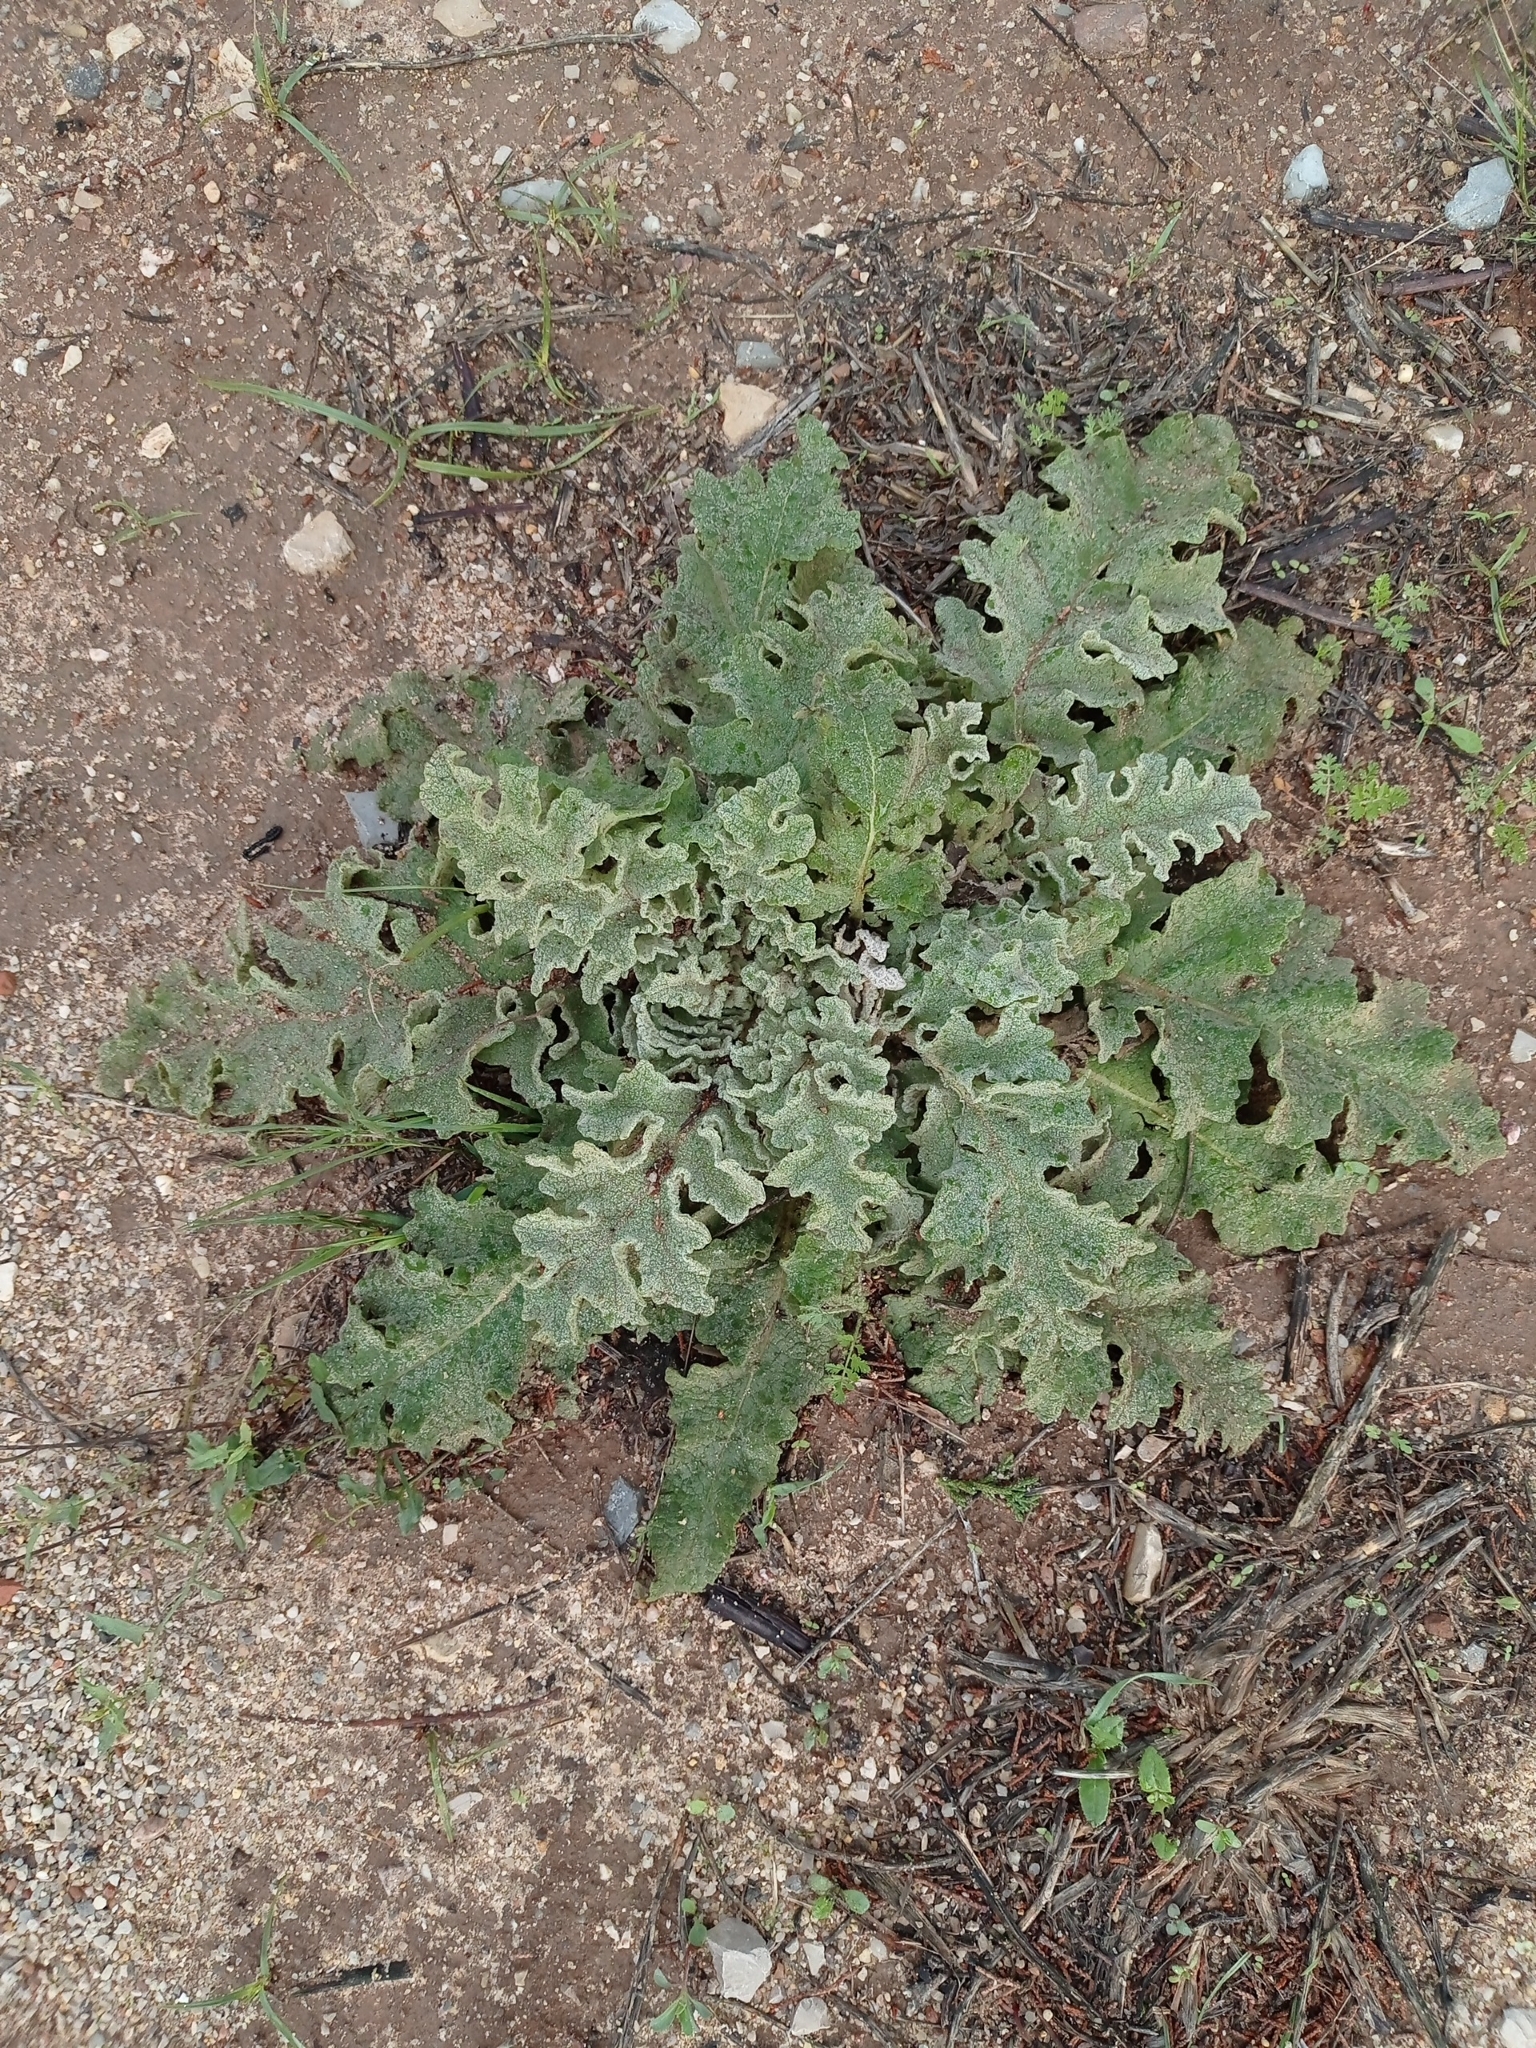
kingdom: Plantae
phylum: Tracheophyta
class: Magnoliopsida
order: Lamiales
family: Scrophulariaceae
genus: Verbascum
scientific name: Verbascum sinuatum
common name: Wavyleaf mullein
